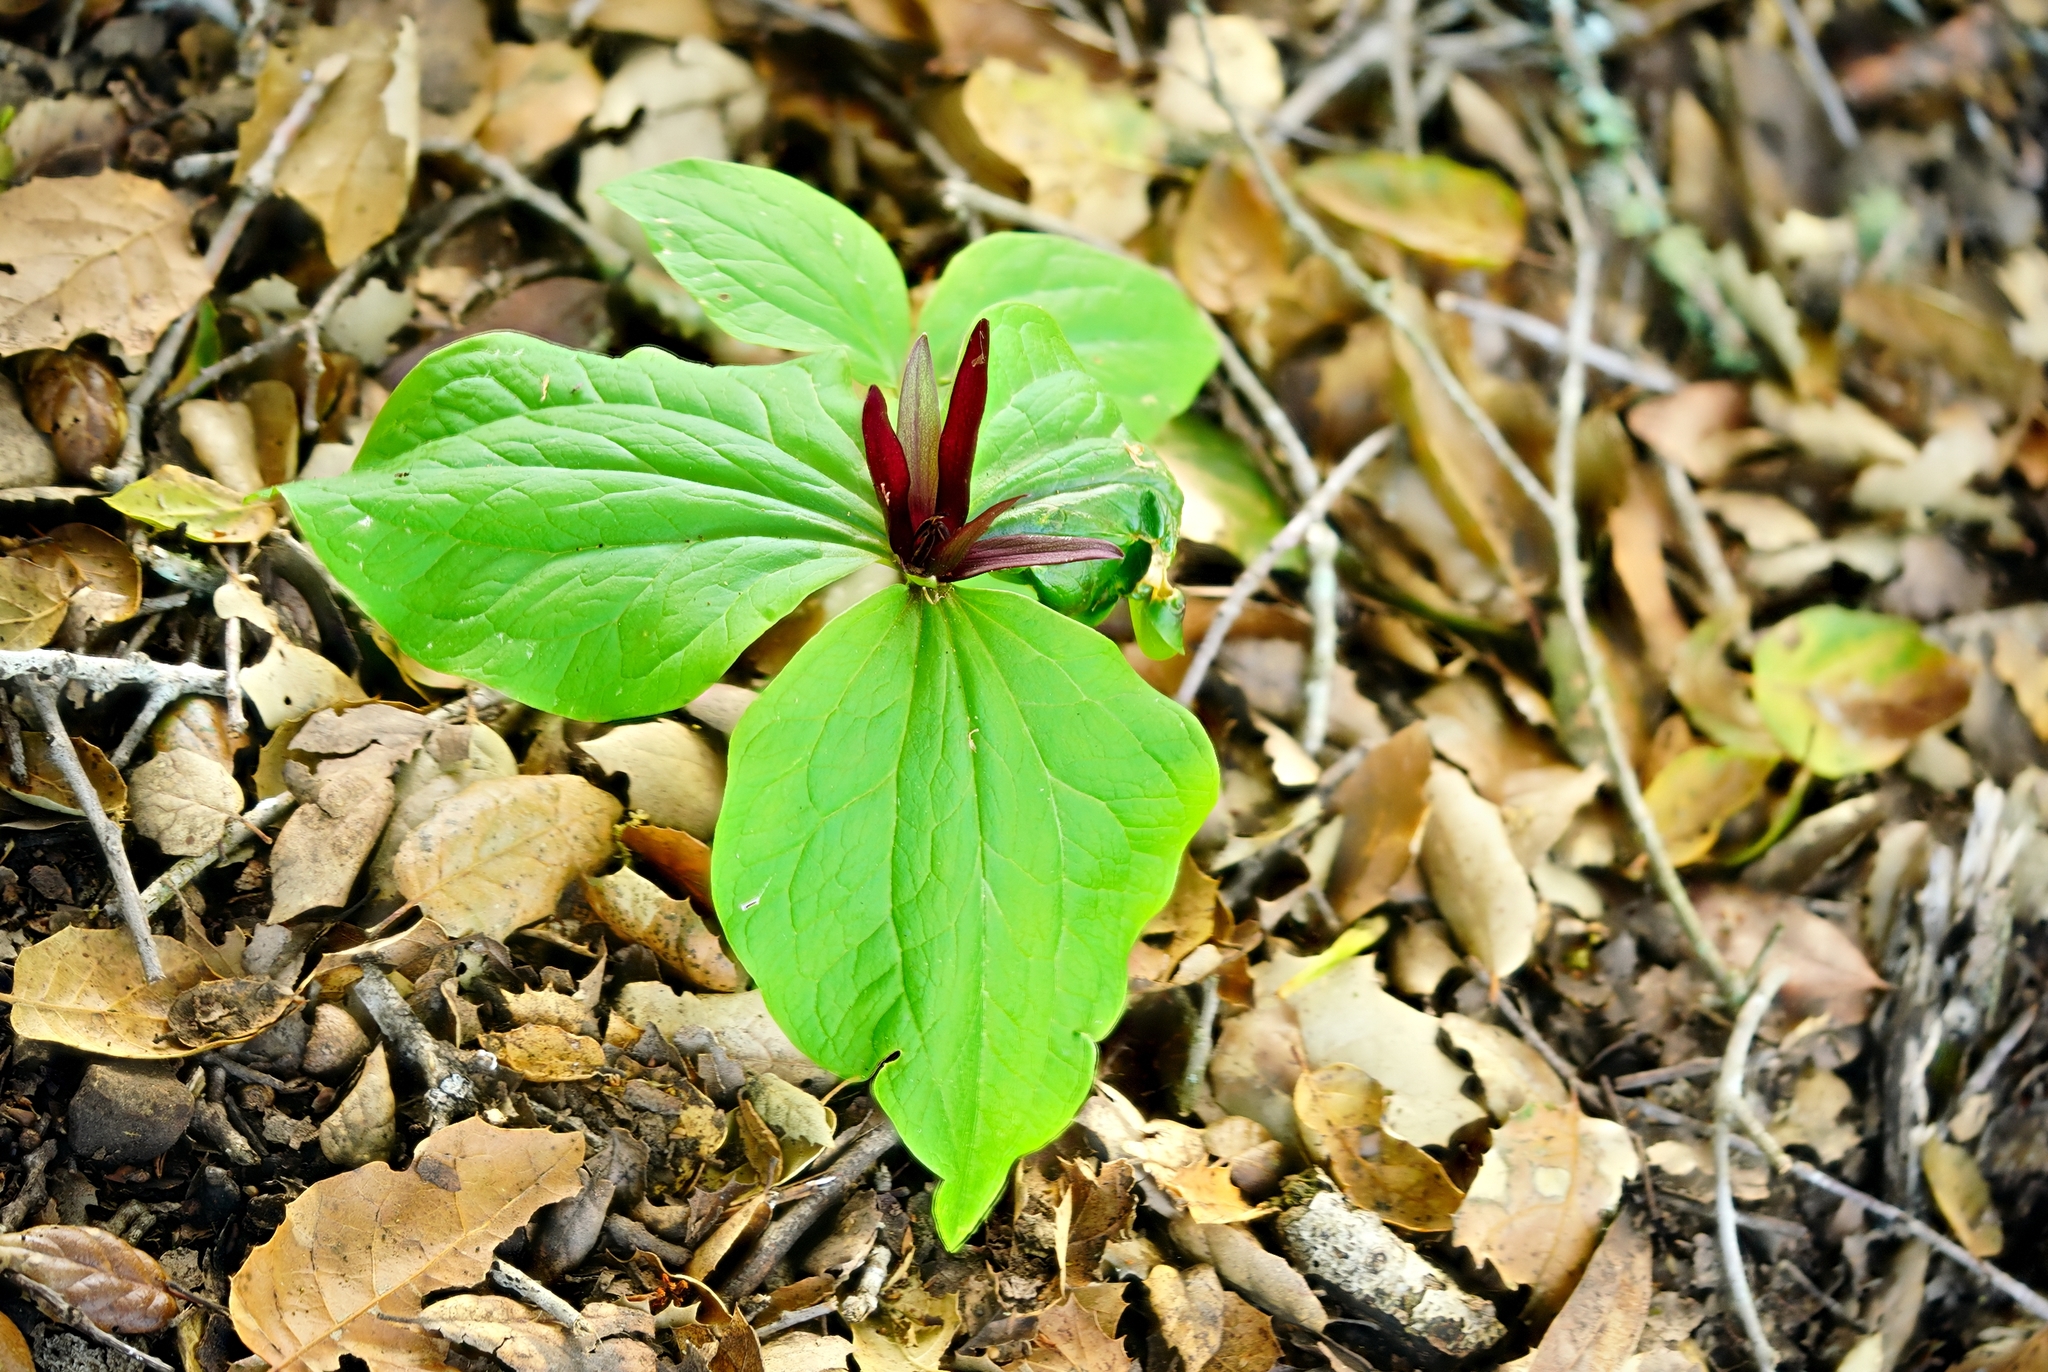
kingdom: Plantae
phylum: Tracheophyta
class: Liliopsida
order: Liliales
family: Melanthiaceae
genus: Trillium
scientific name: Trillium chloropetalum
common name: Giant trillium
